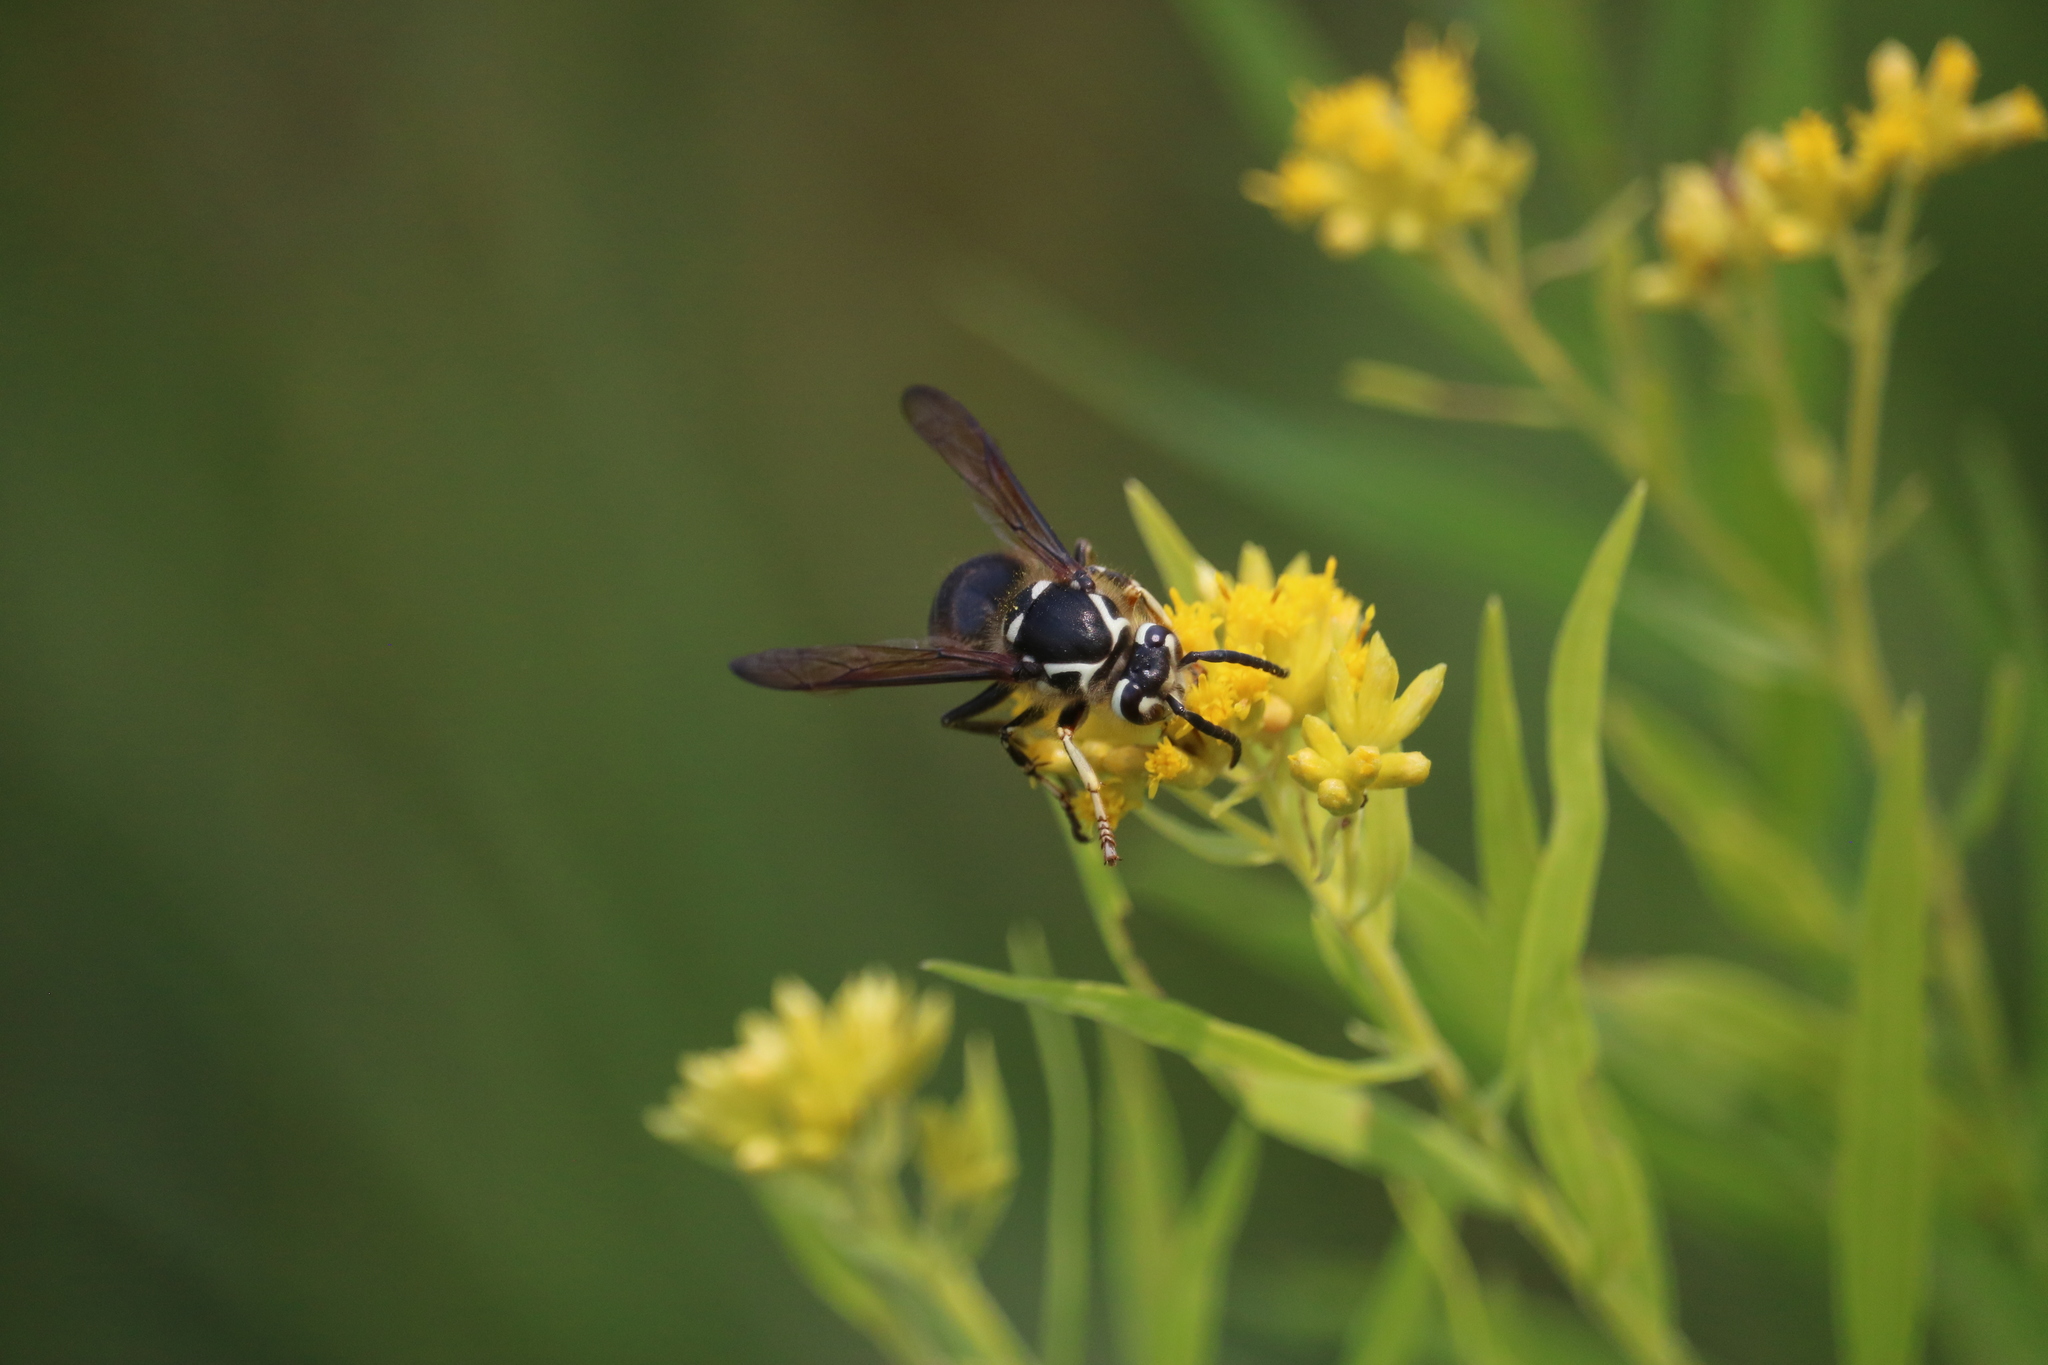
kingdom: Animalia
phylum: Arthropoda
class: Insecta
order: Hymenoptera
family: Vespidae
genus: Dolichovespula
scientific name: Dolichovespula maculata
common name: Bald-faced hornet
